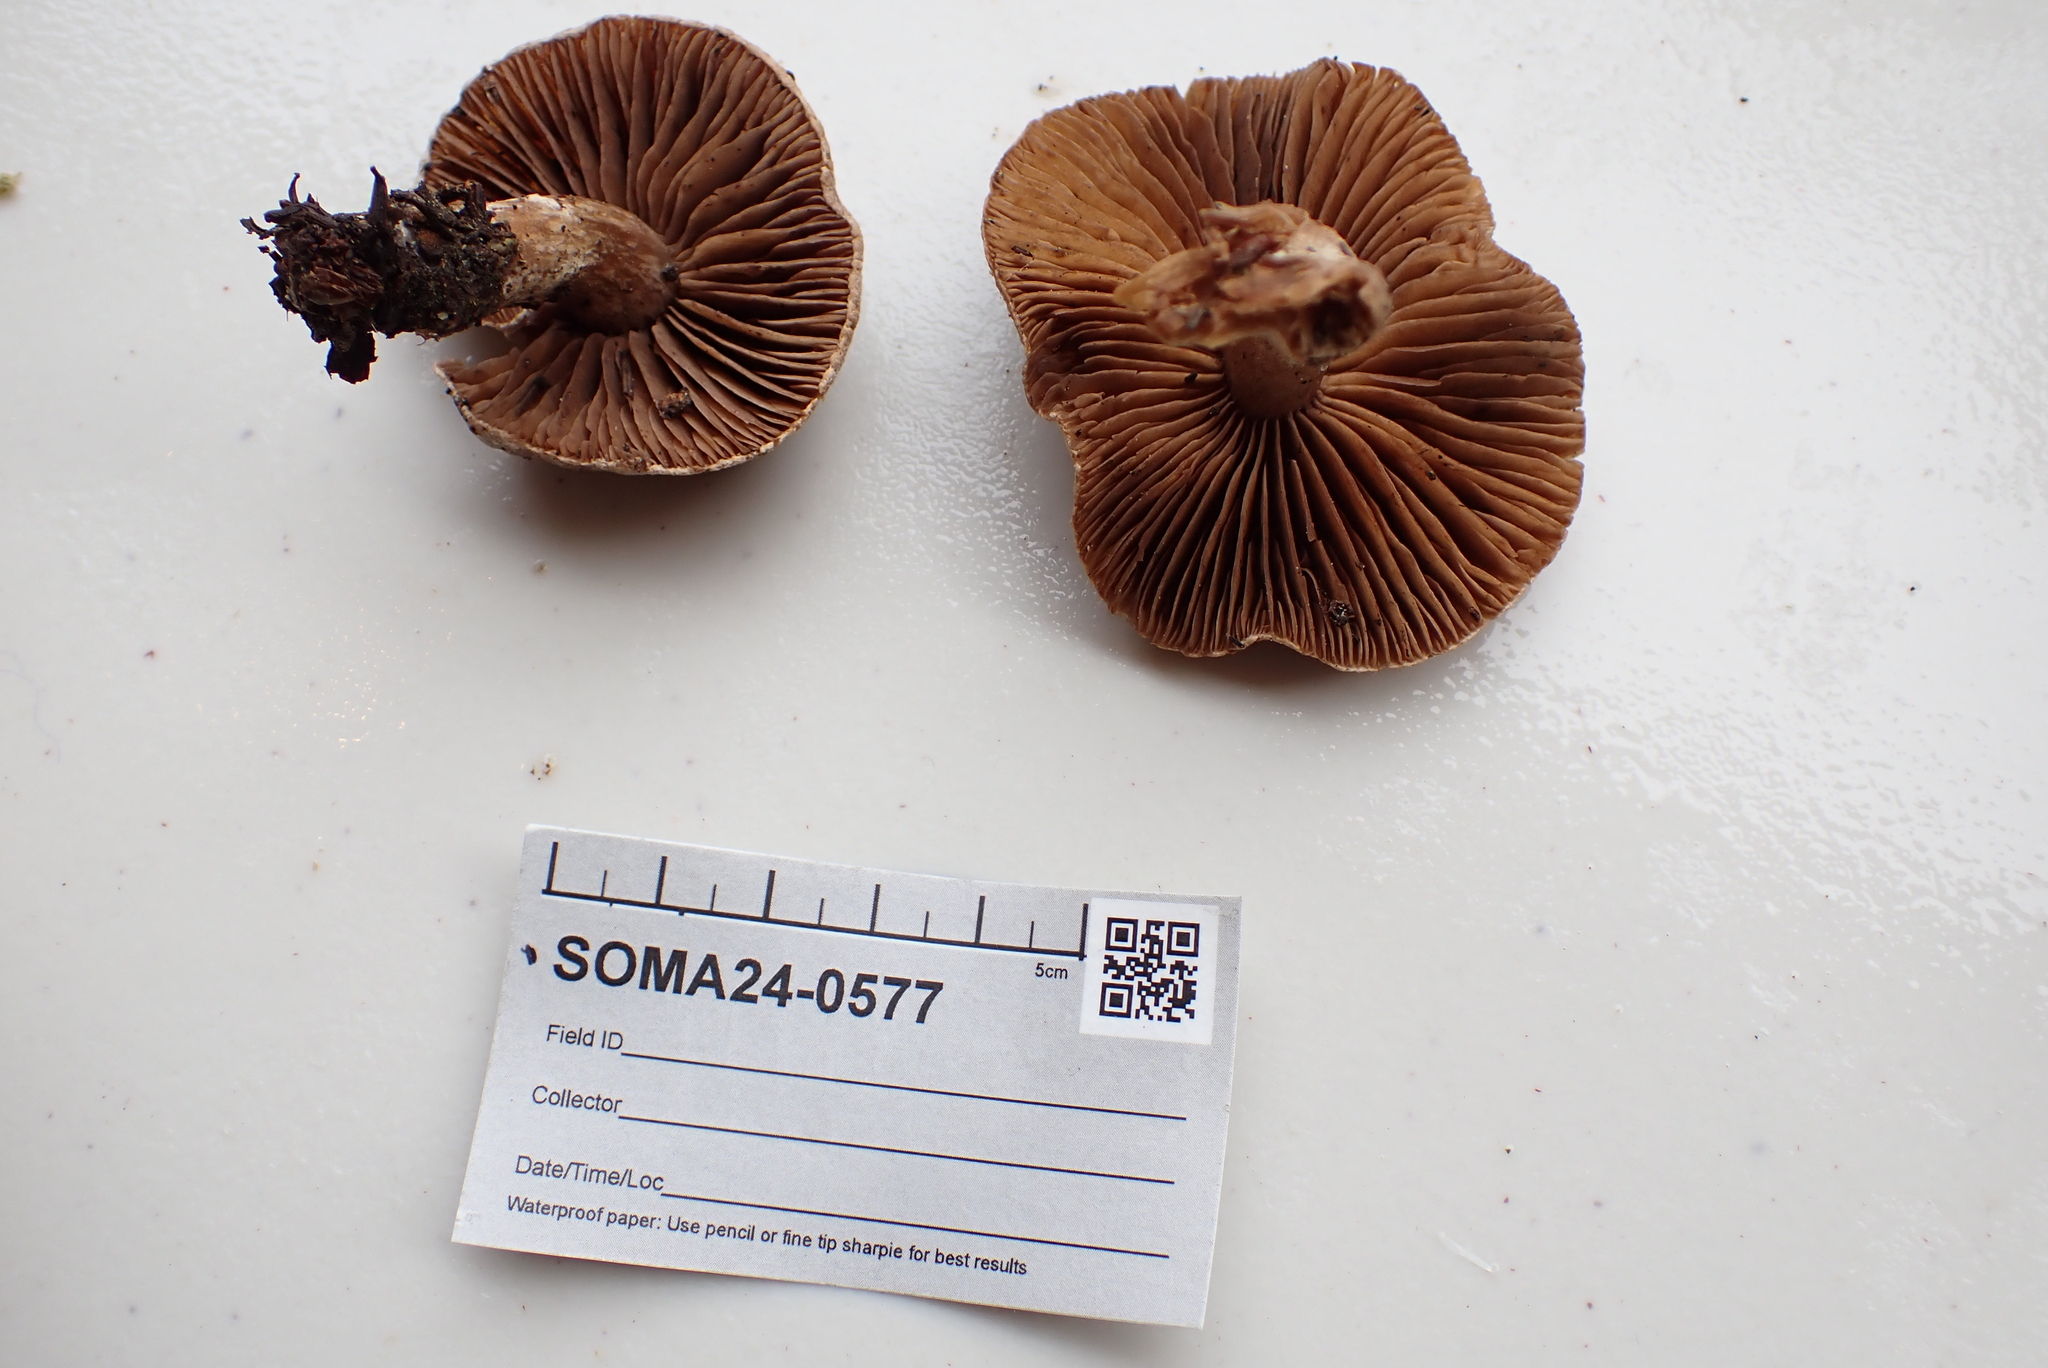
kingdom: Fungi
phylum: Basidiomycota
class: Agaricomycetes
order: Agaricales
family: Cortinariaceae
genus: Cortinarius
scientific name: Cortinarius comptulus
